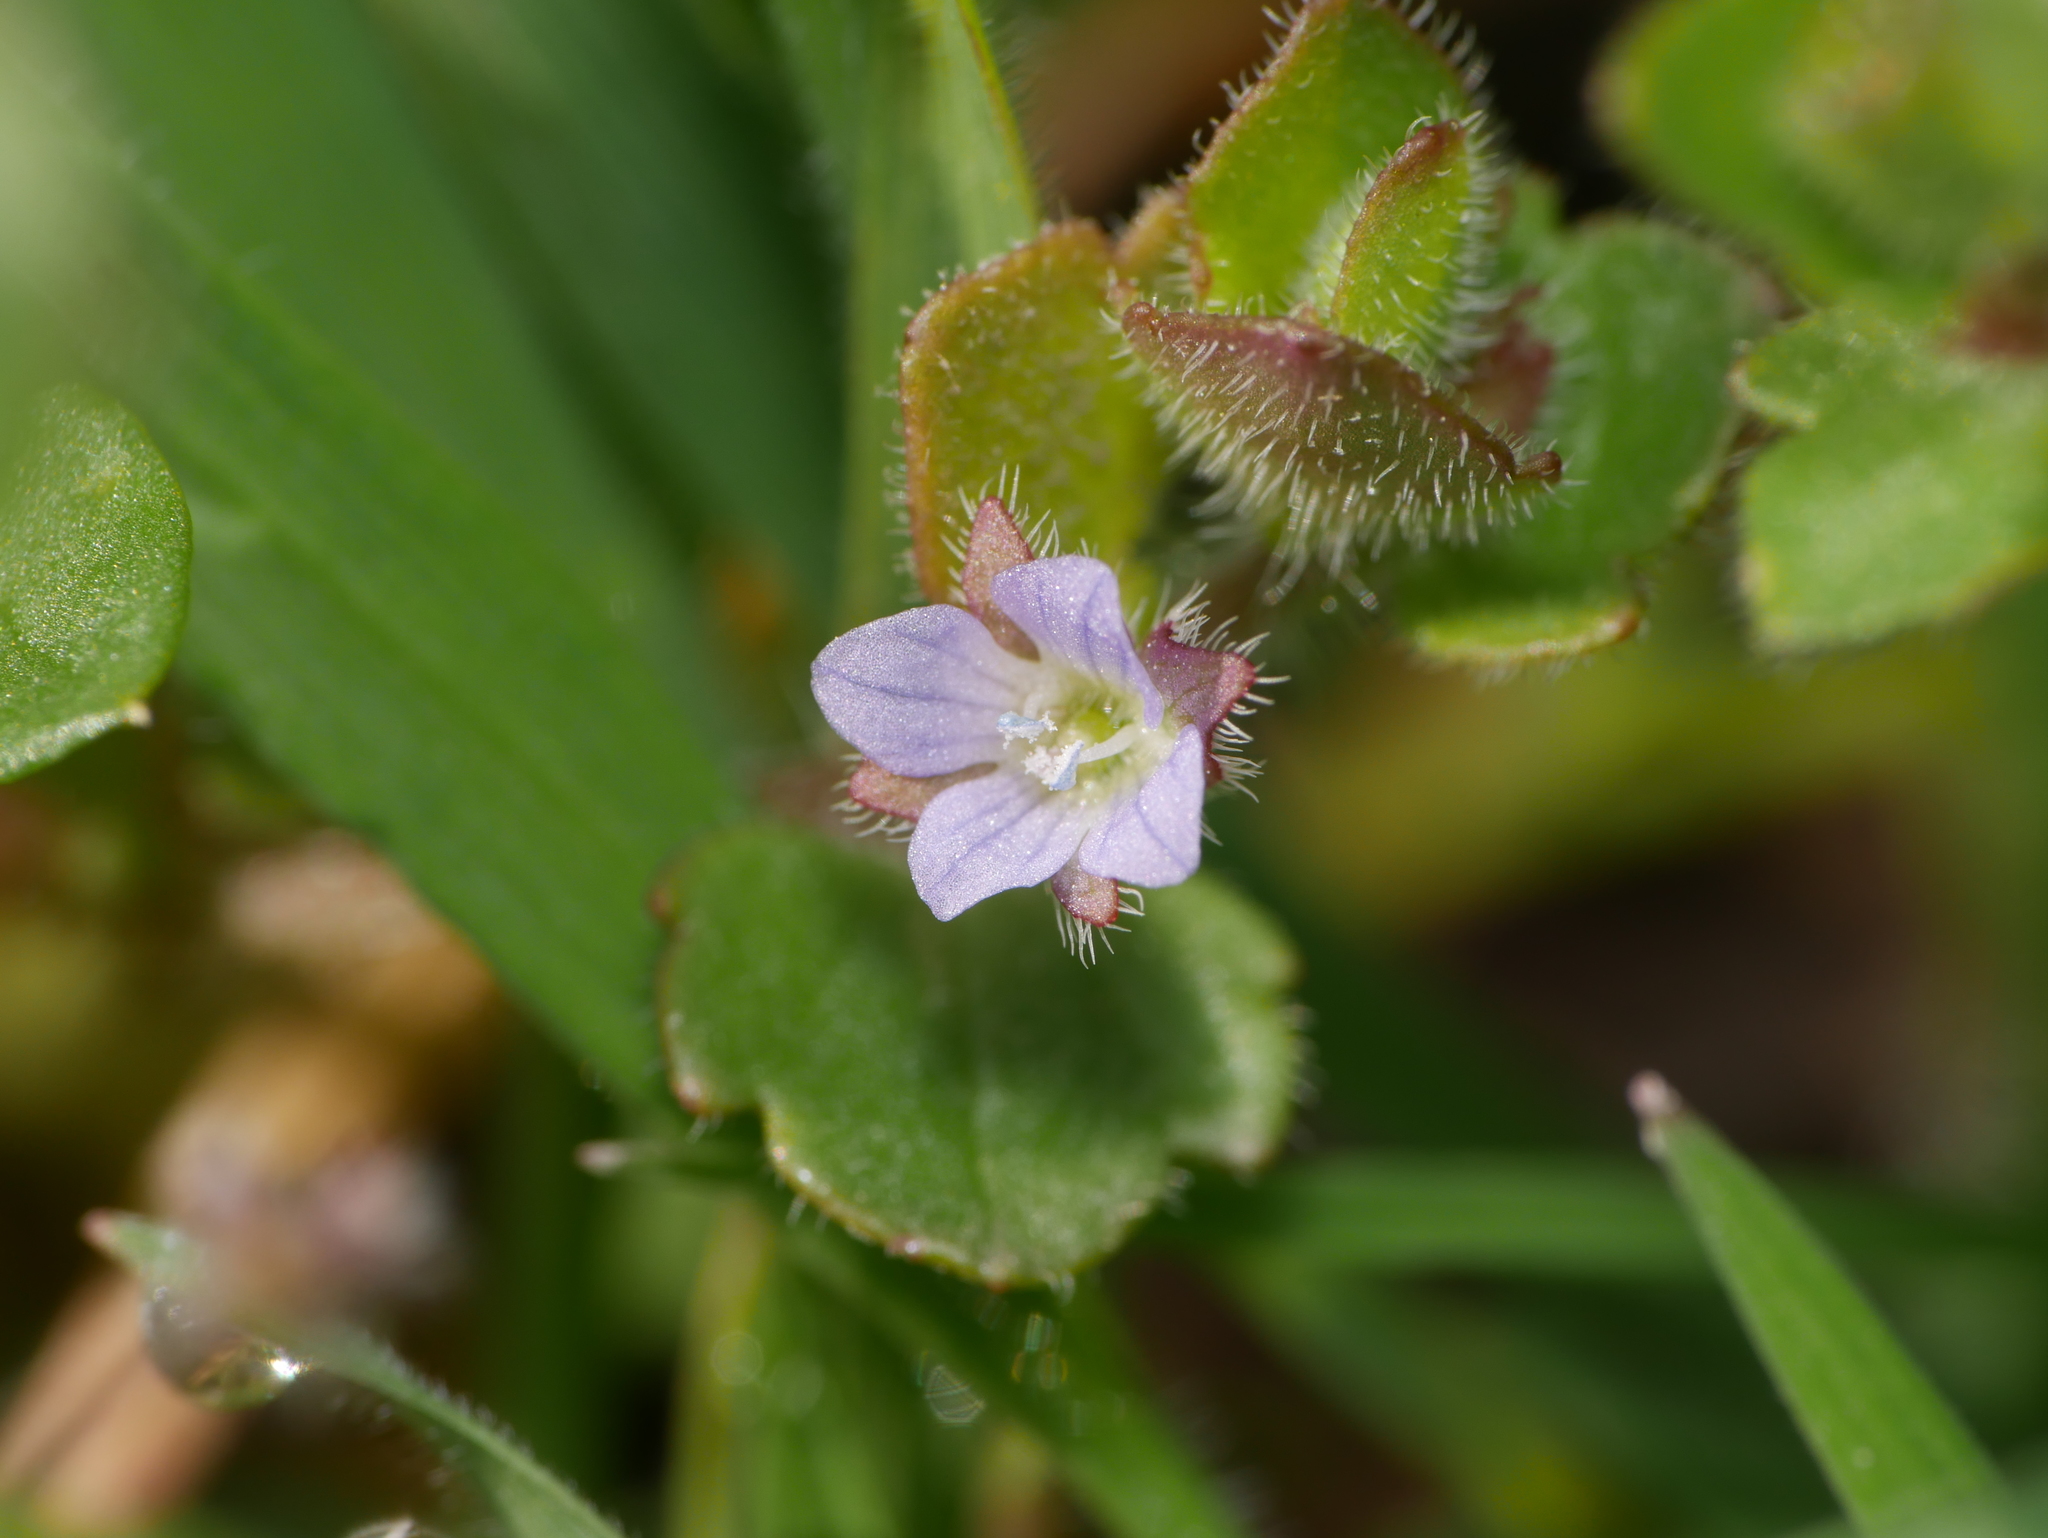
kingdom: Plantae
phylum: Tracheophyta
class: Magnoliopsida
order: Lamiales
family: Plantaginaceae
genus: Veronica
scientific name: Veronica sublobata
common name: False ivy-leaved speedwell
